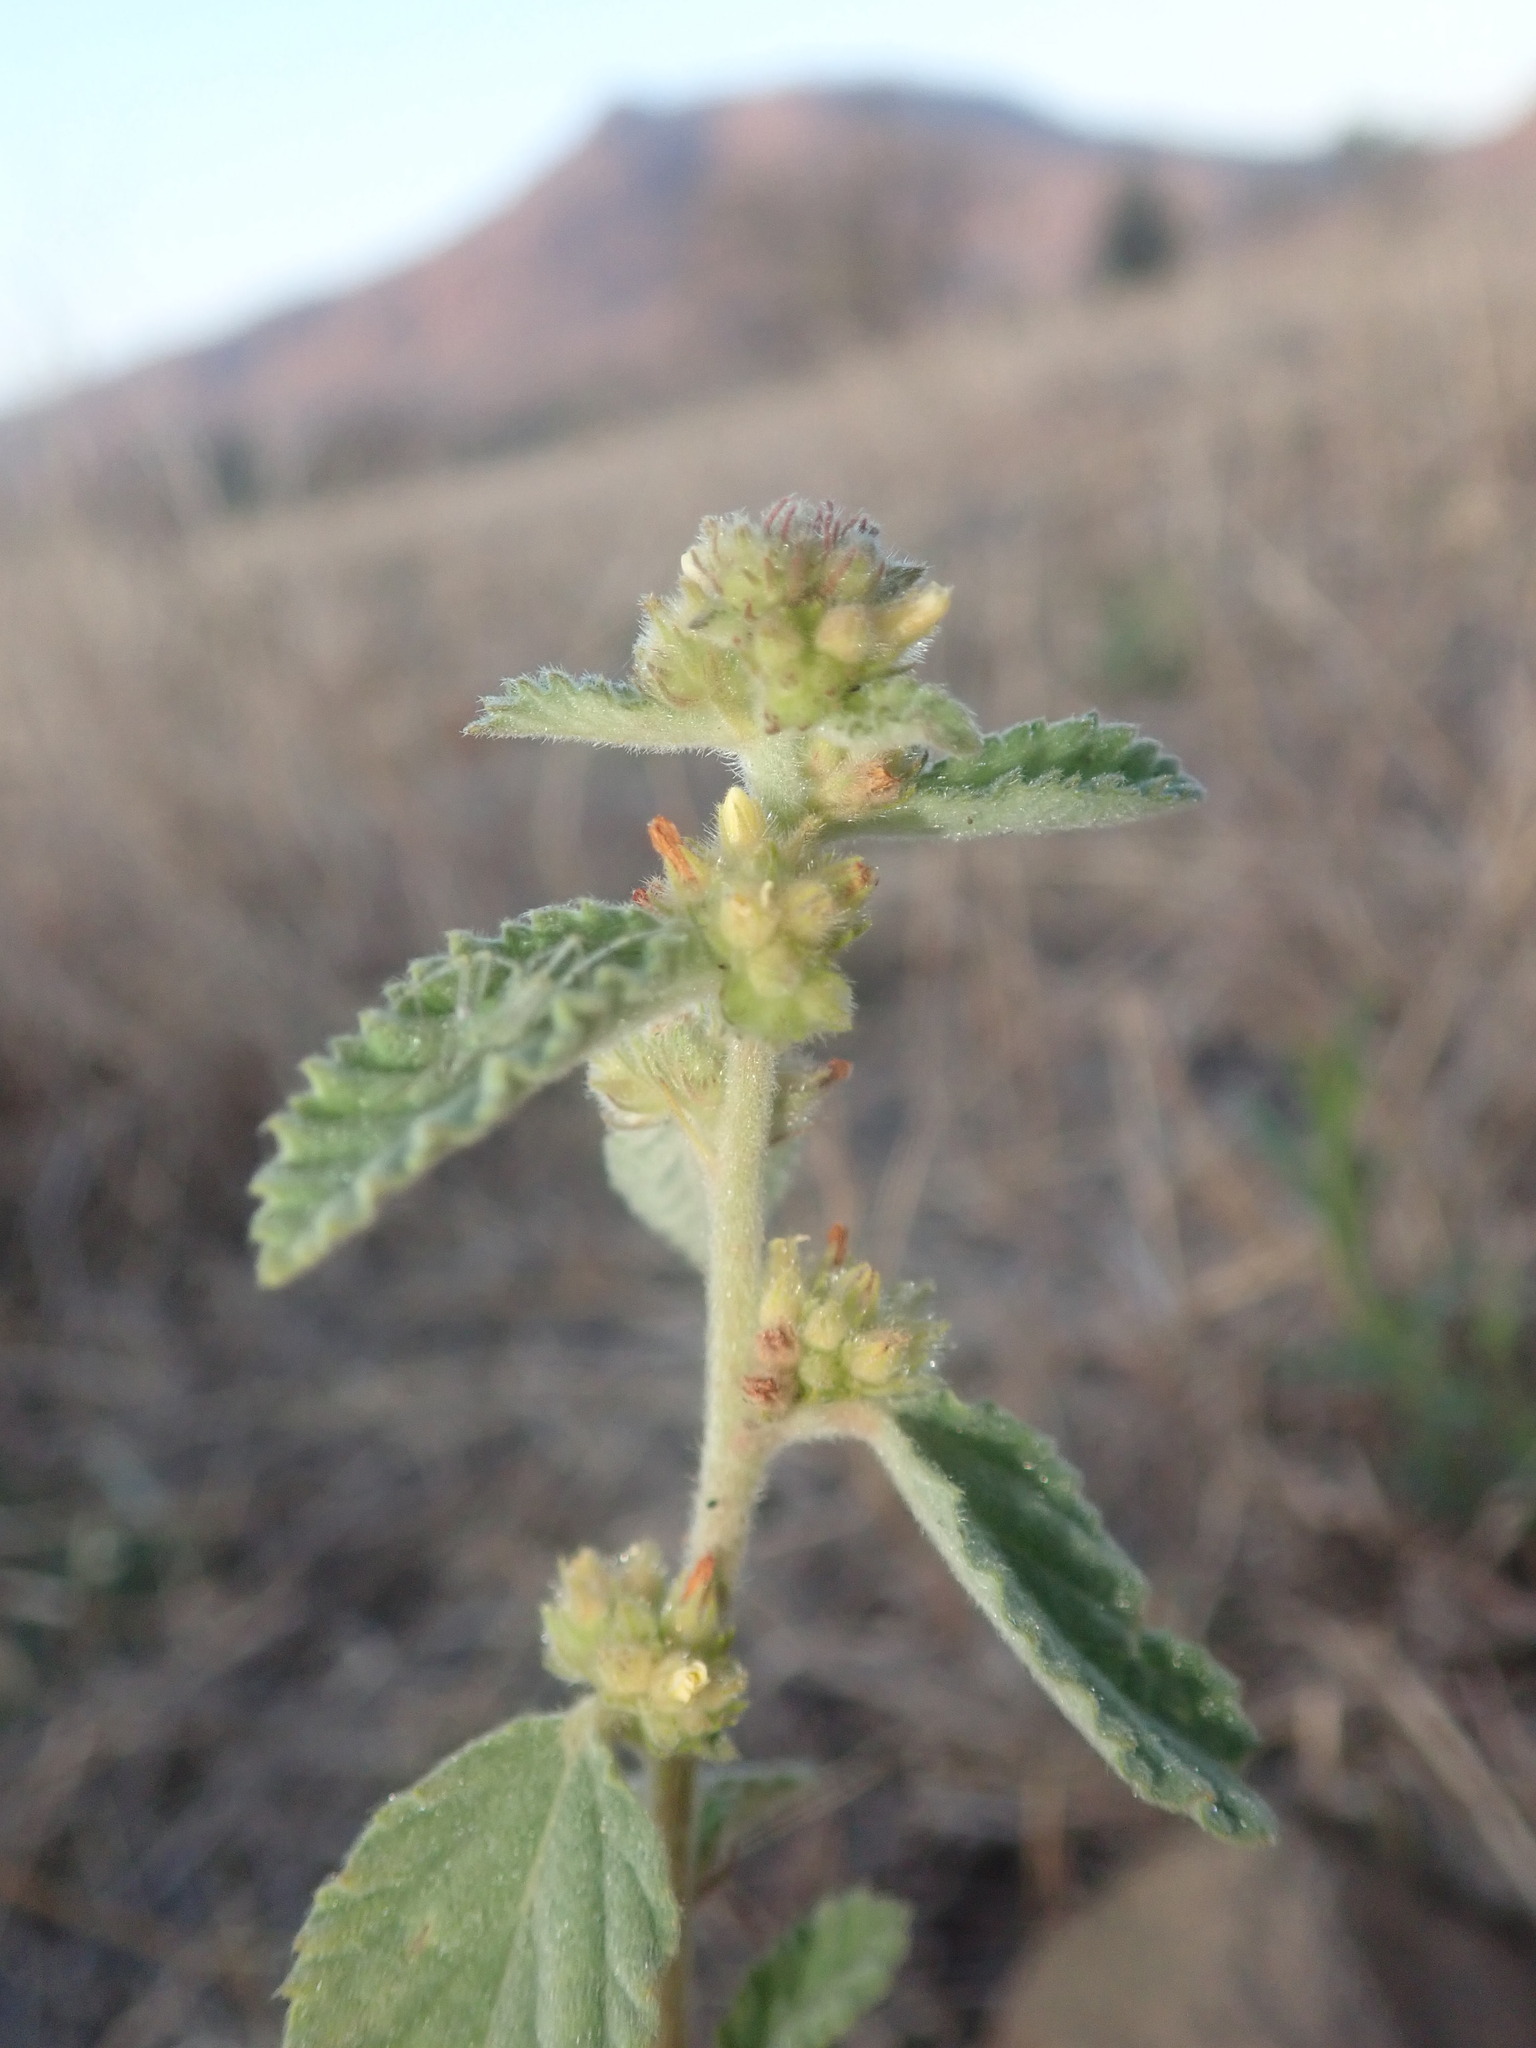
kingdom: Plantae
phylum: Tracheophyta
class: Magnoliopsida
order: Malvales
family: Malvaceae
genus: Waltheria
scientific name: Waltheria indica
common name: Leather-coat
